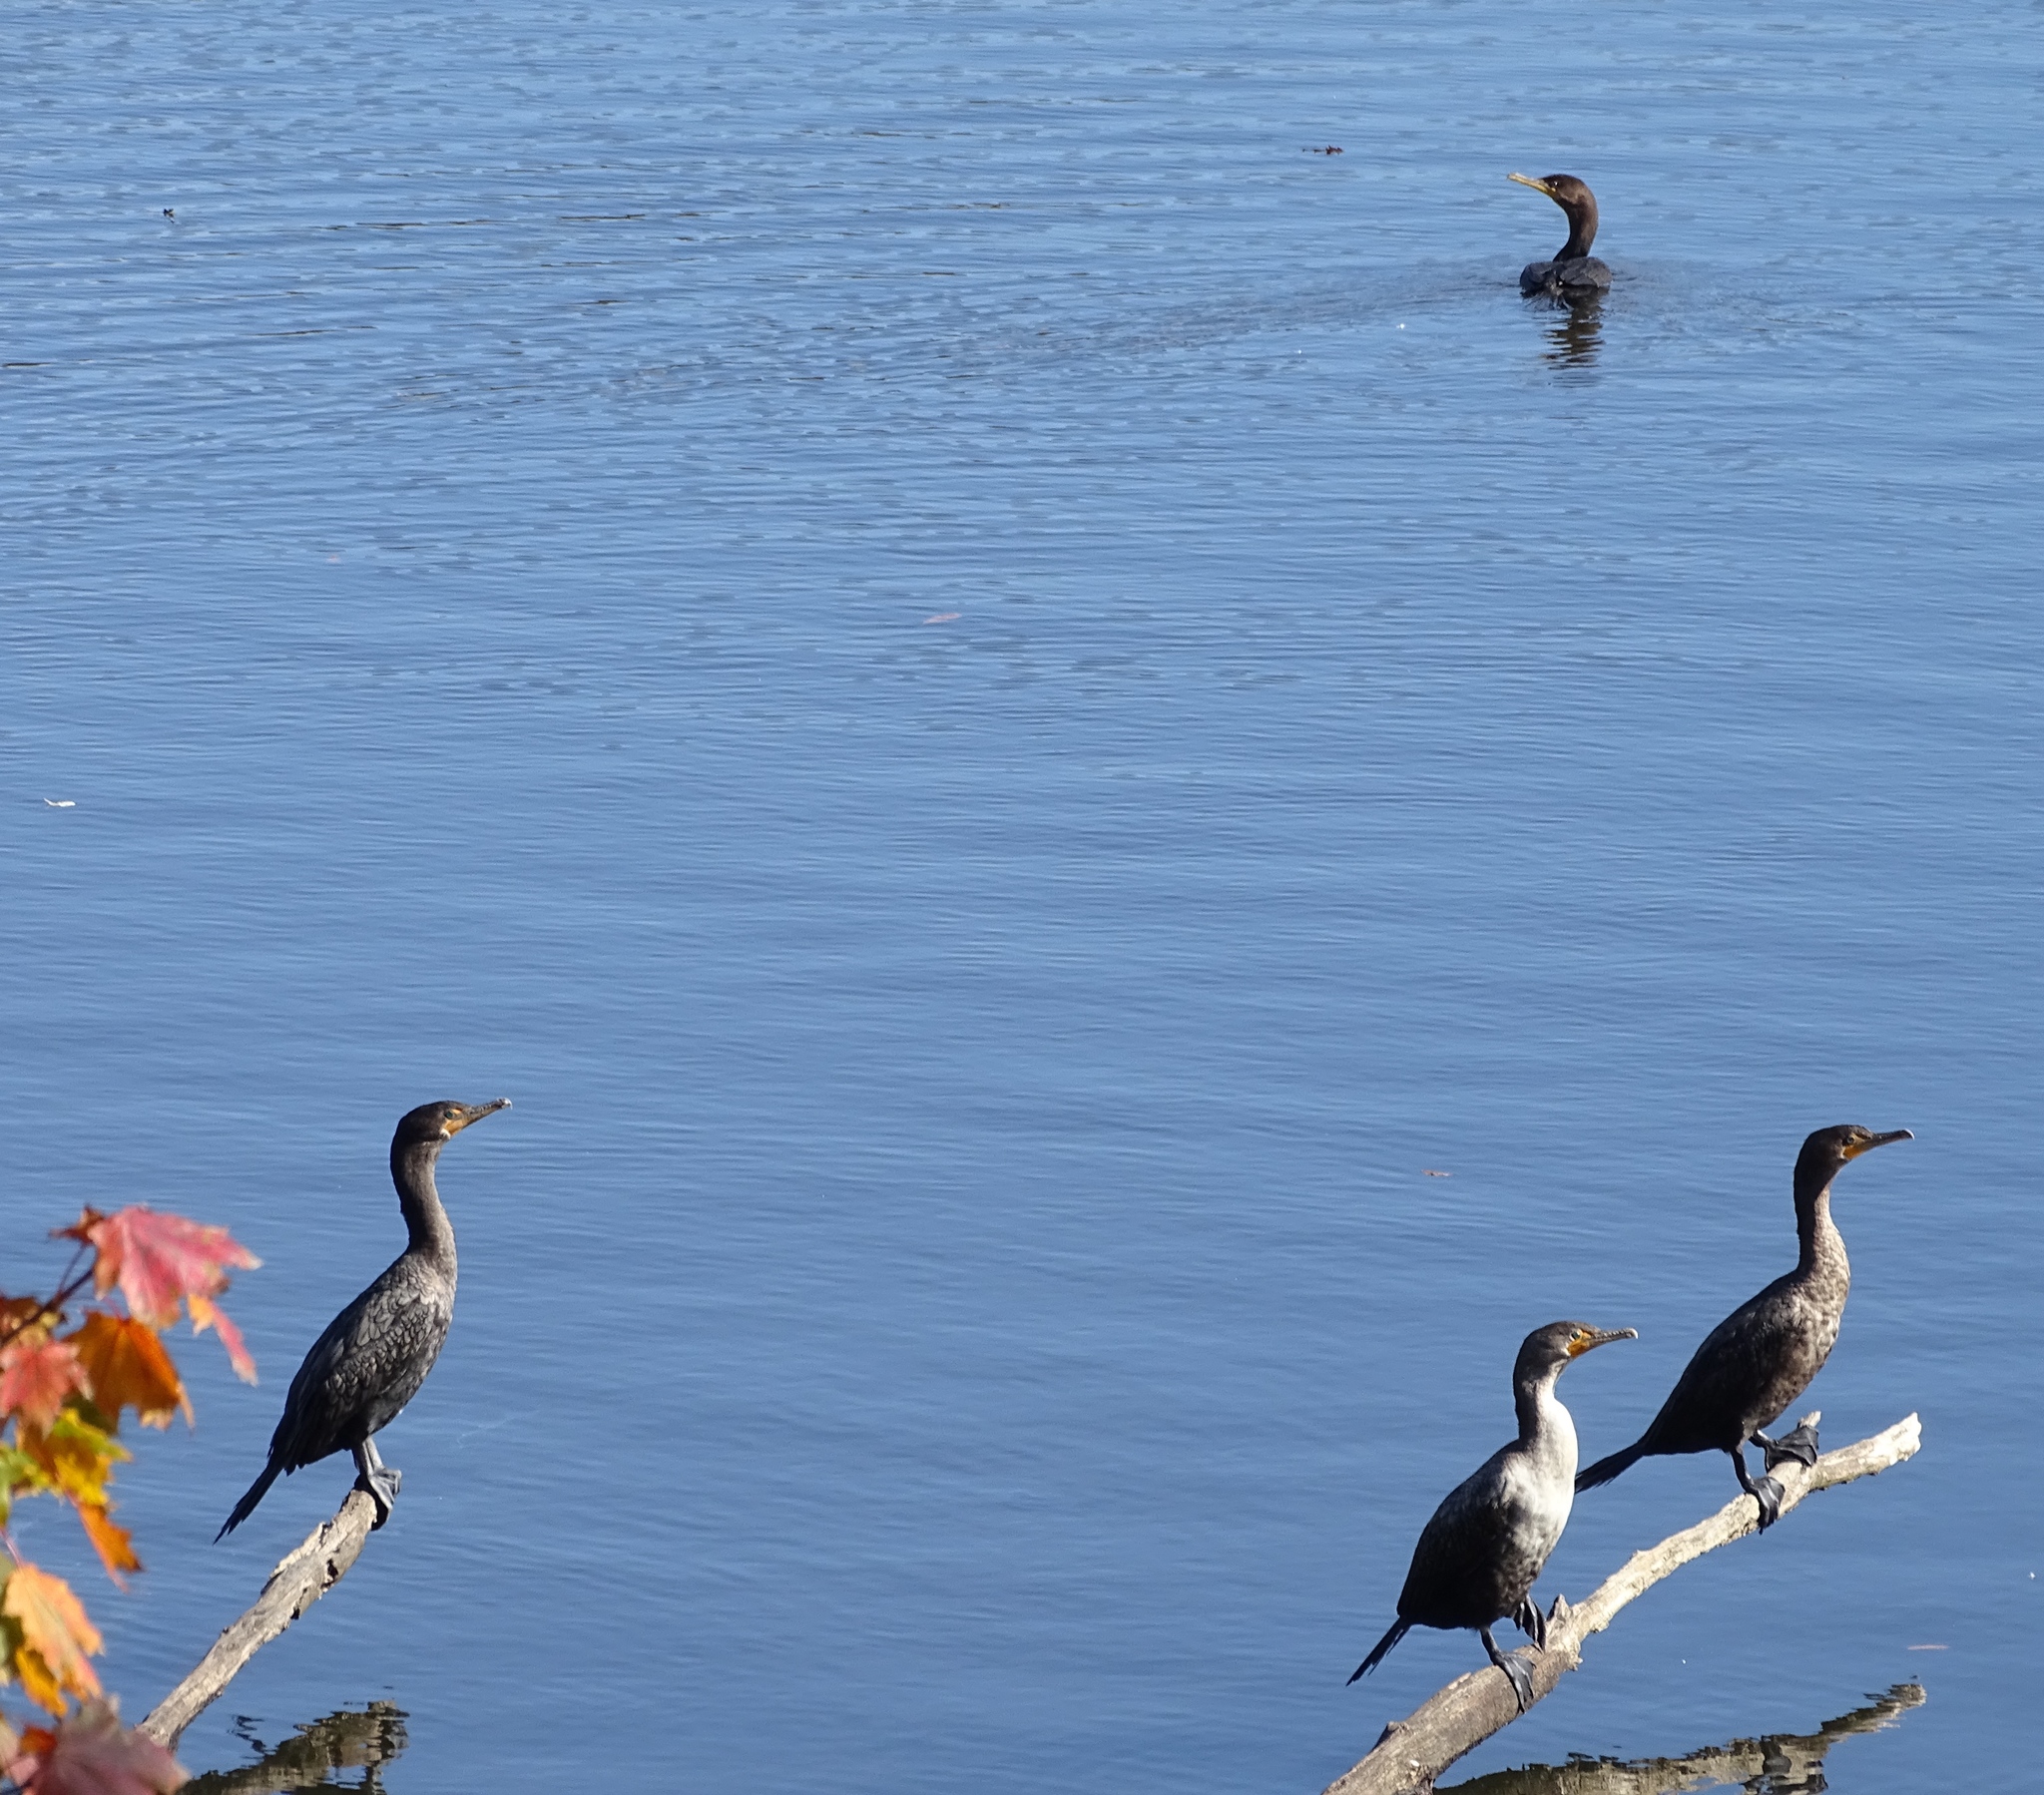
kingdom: Animalia
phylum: Chordata
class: Aves
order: Suliformes
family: Phalacrocoracidae
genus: Phalacrocorax
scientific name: Phalacrocorax auritus
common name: Double-crested cormorant
